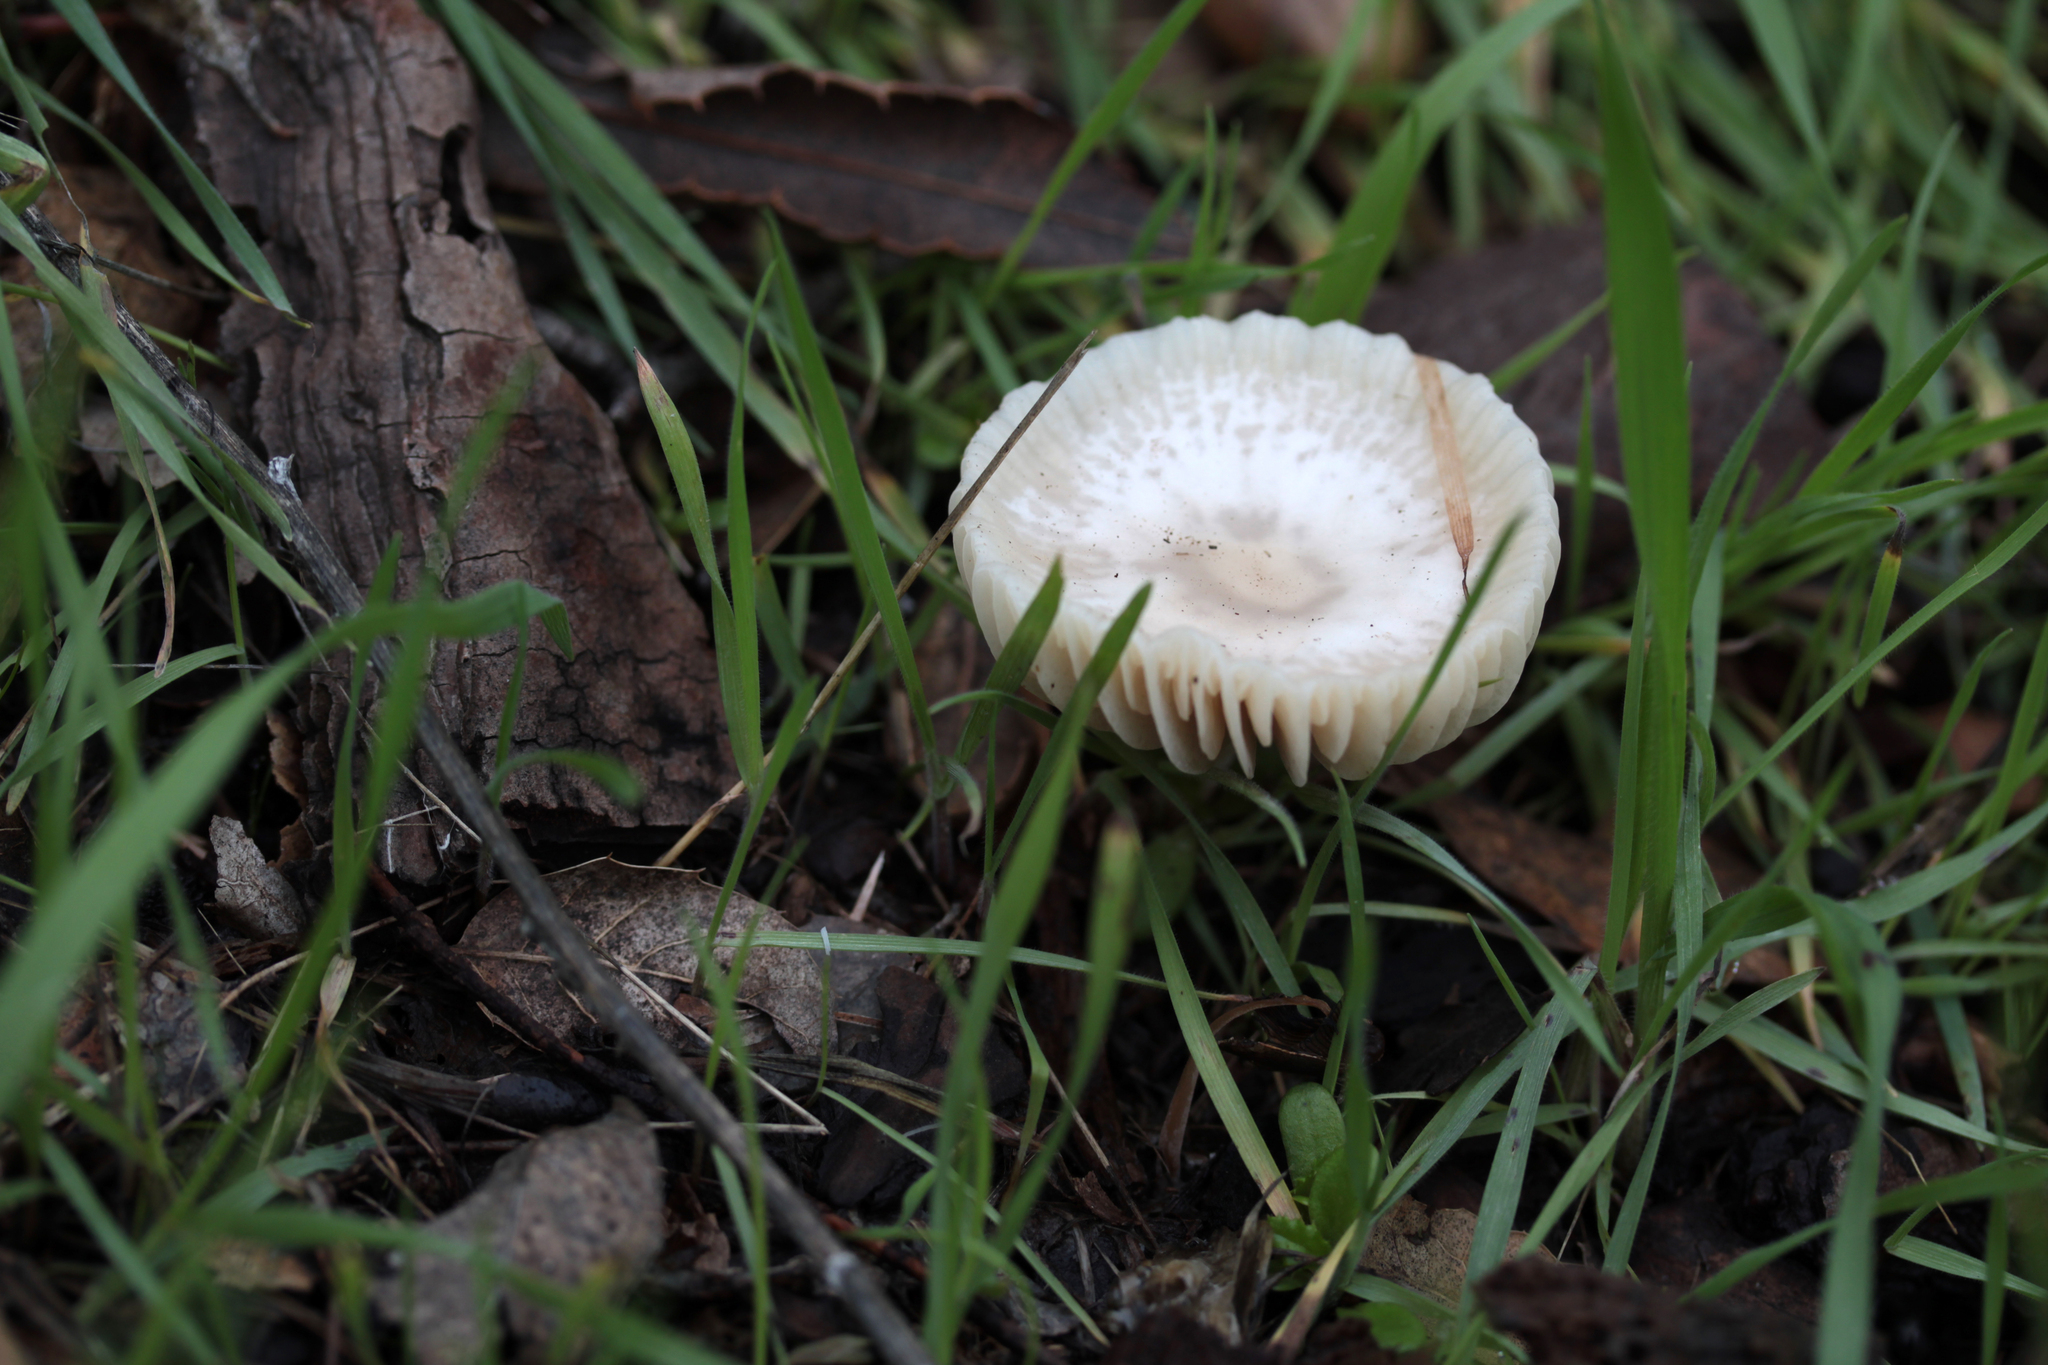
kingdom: Fungi
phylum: Basidiomycota
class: Agaricomycetes
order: Agaricales
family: Marasmiaceae
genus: Marasmius
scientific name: Marasmius albogriseus
